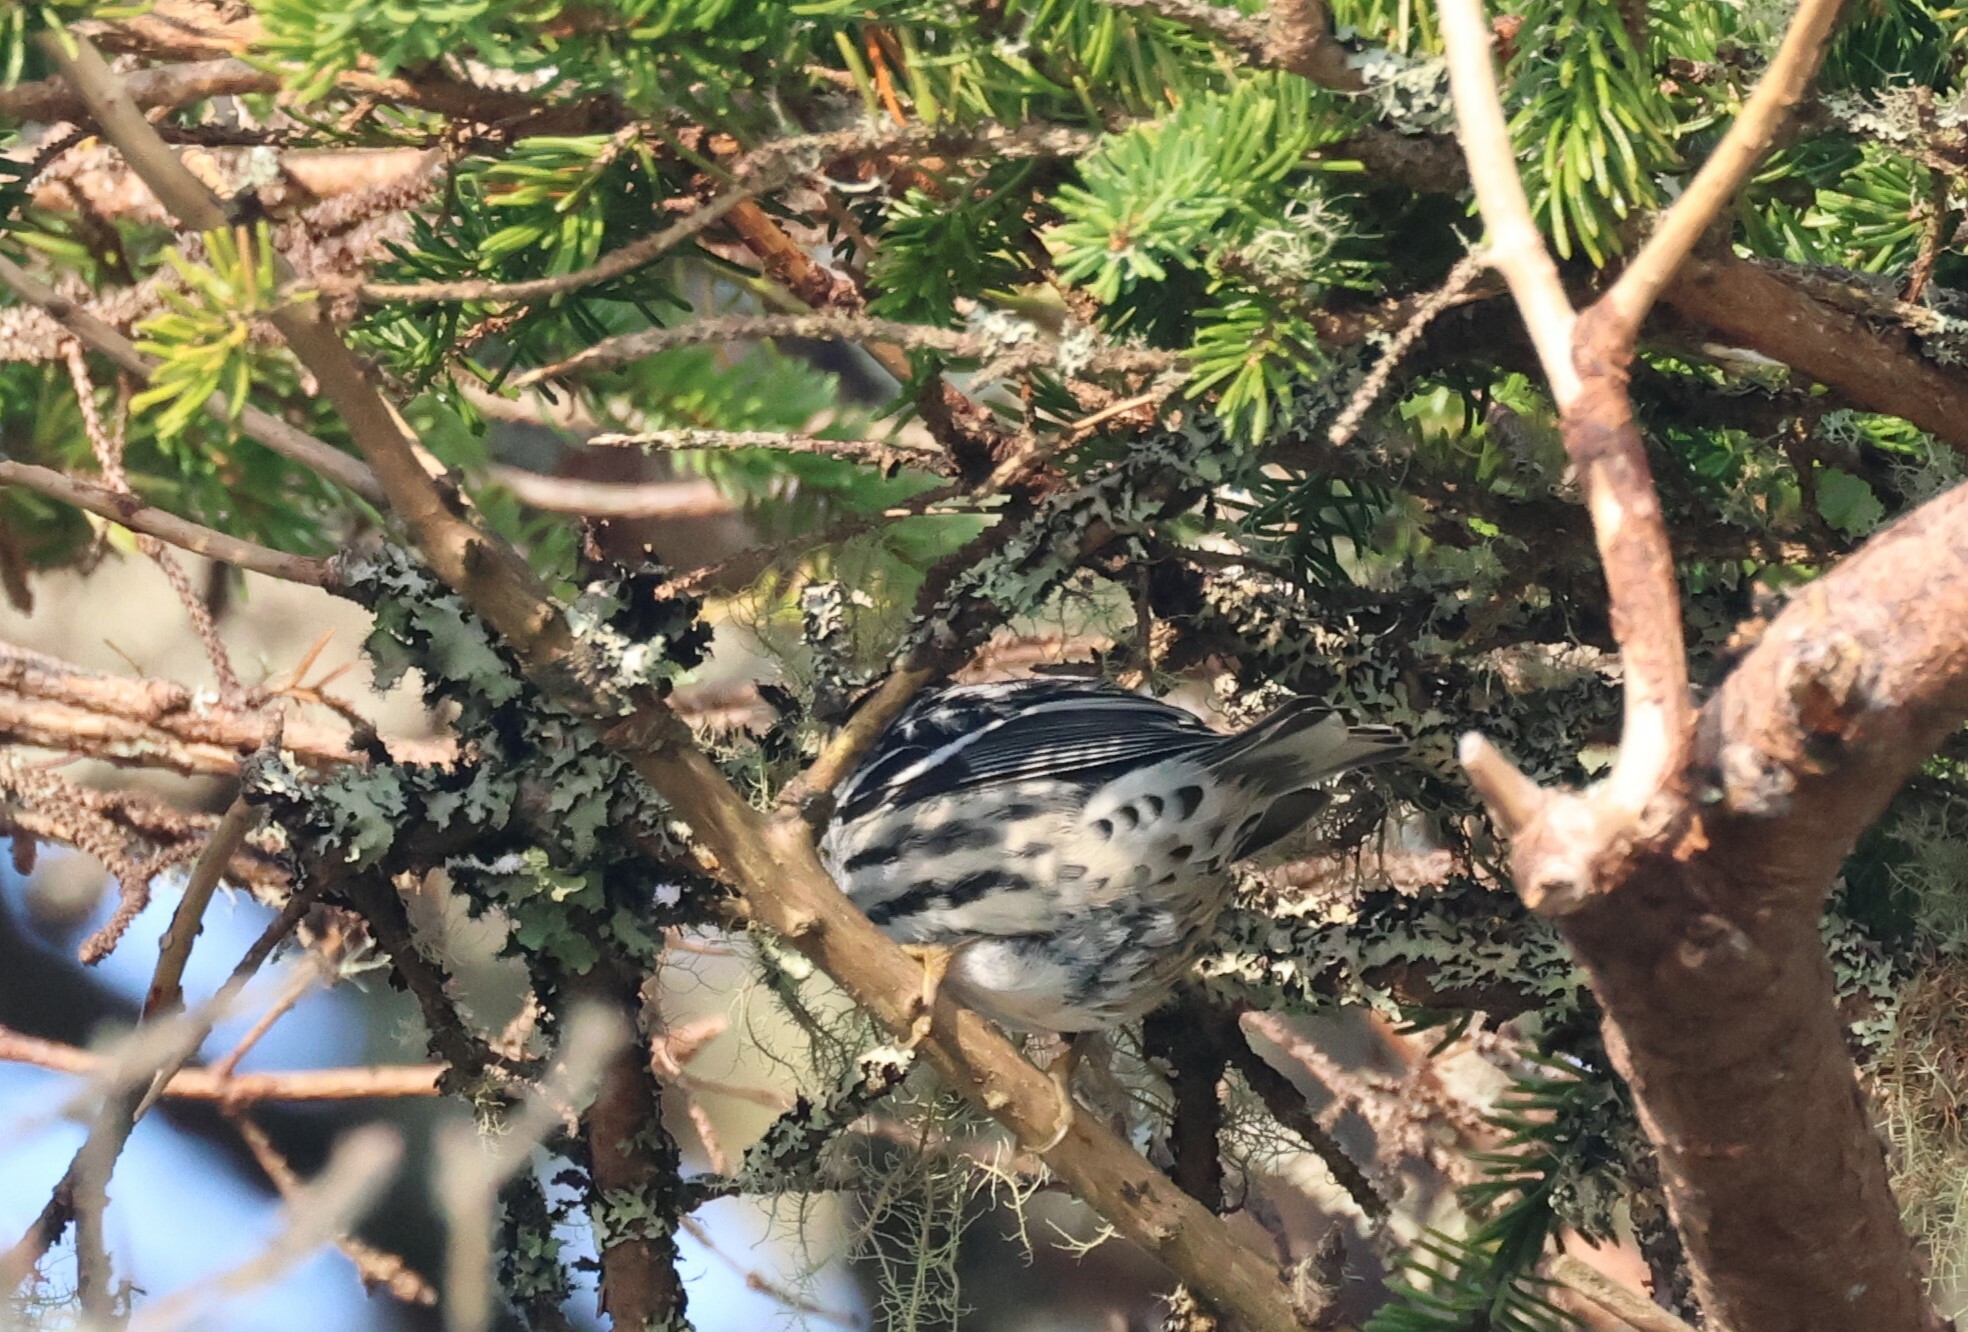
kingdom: Animalia
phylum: Chordata
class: Aves
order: Passeriformes
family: Parulidae
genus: Mniotilta
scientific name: Mniotilta varia
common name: Black-and-white warbler
